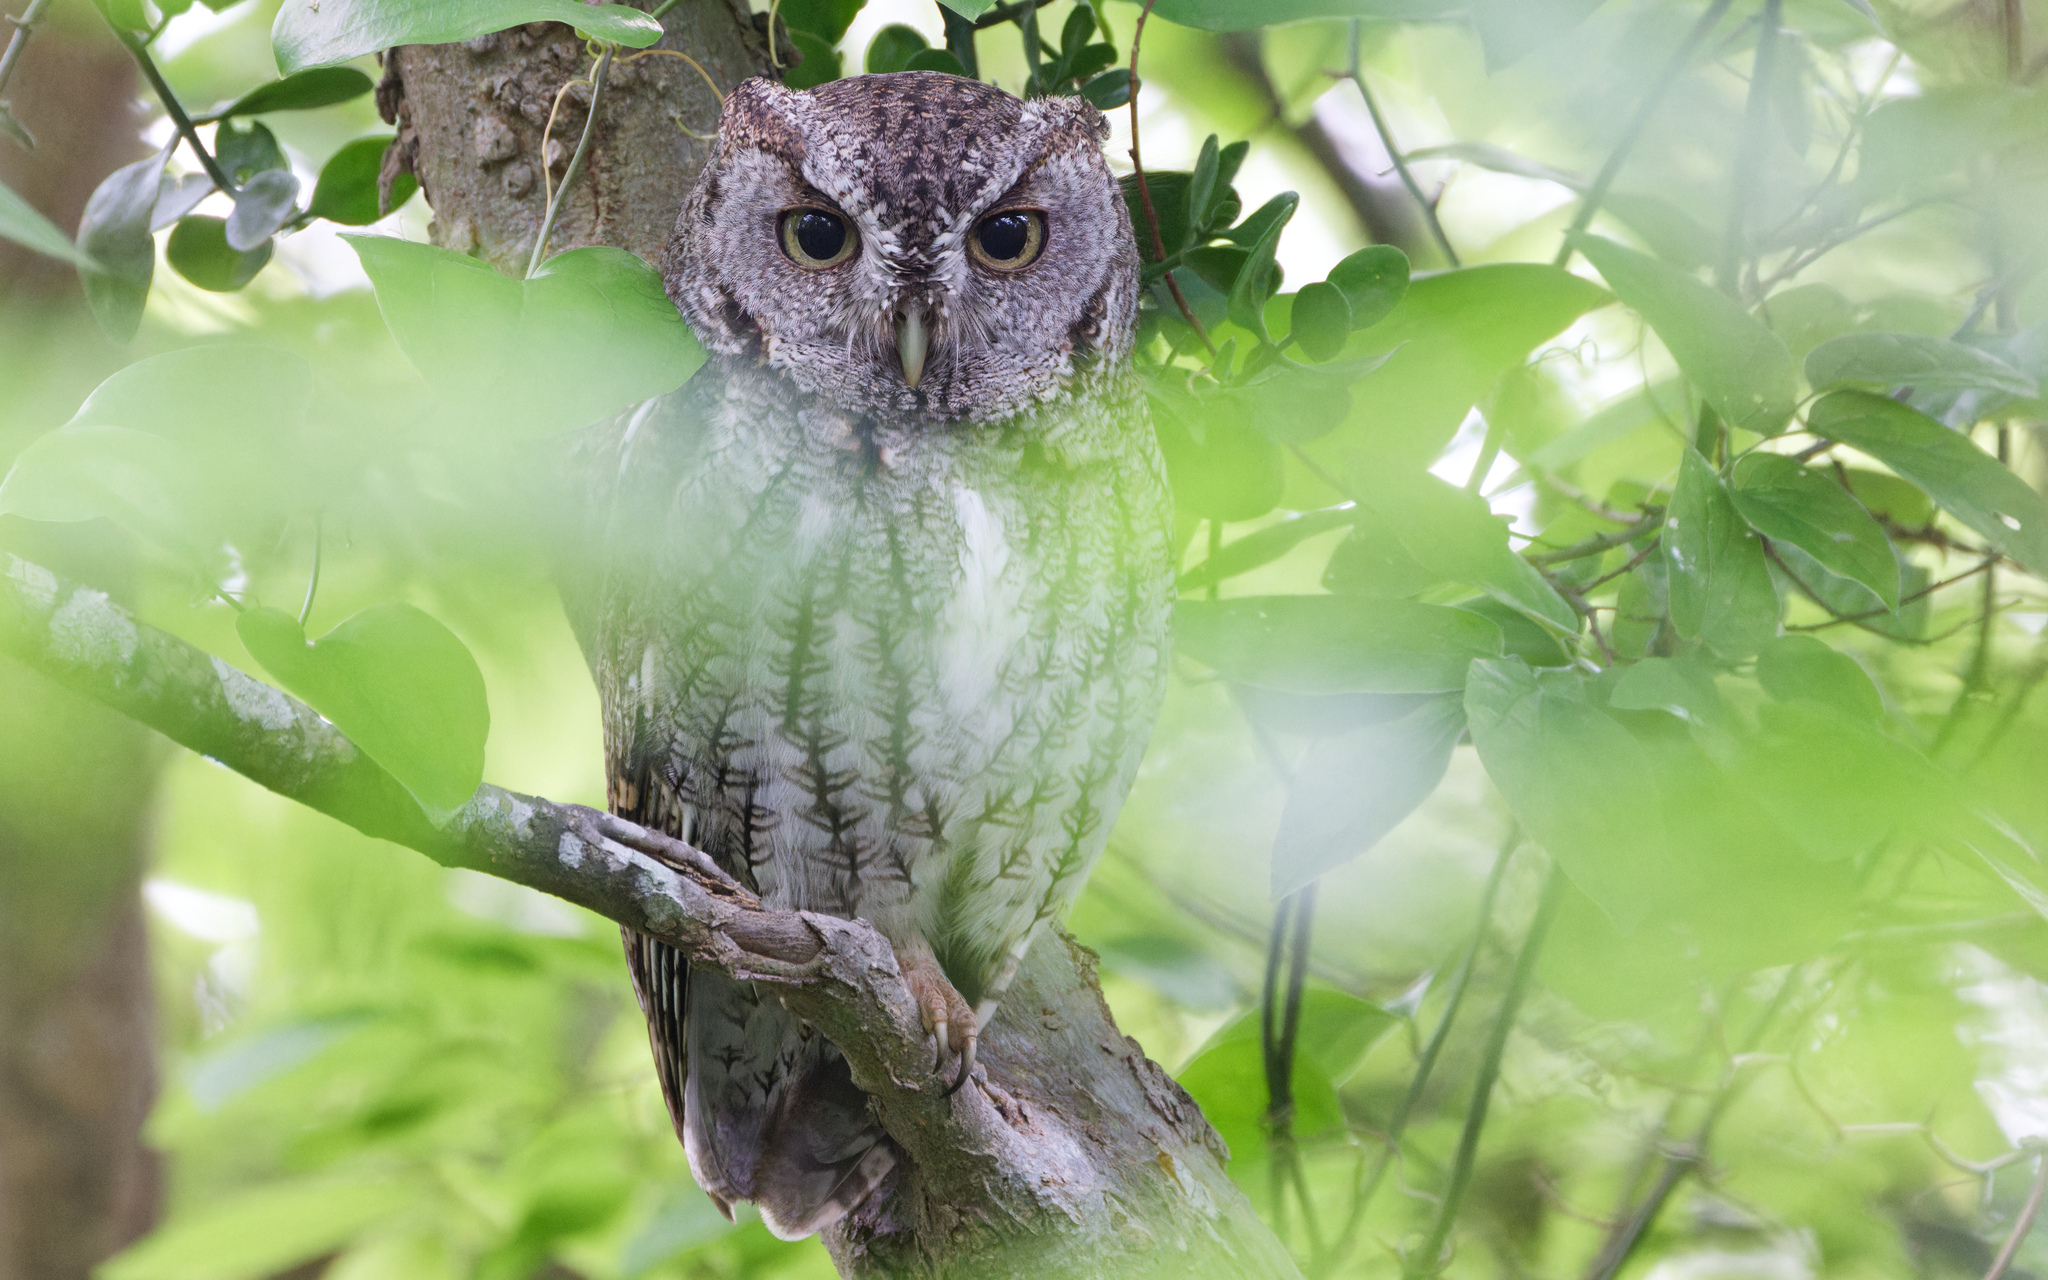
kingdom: Animalia
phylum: Chordata
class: Aves
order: Strigiformes
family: Strigidae
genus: Megascops
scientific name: Megascops asio
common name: Eastern screech-owl
